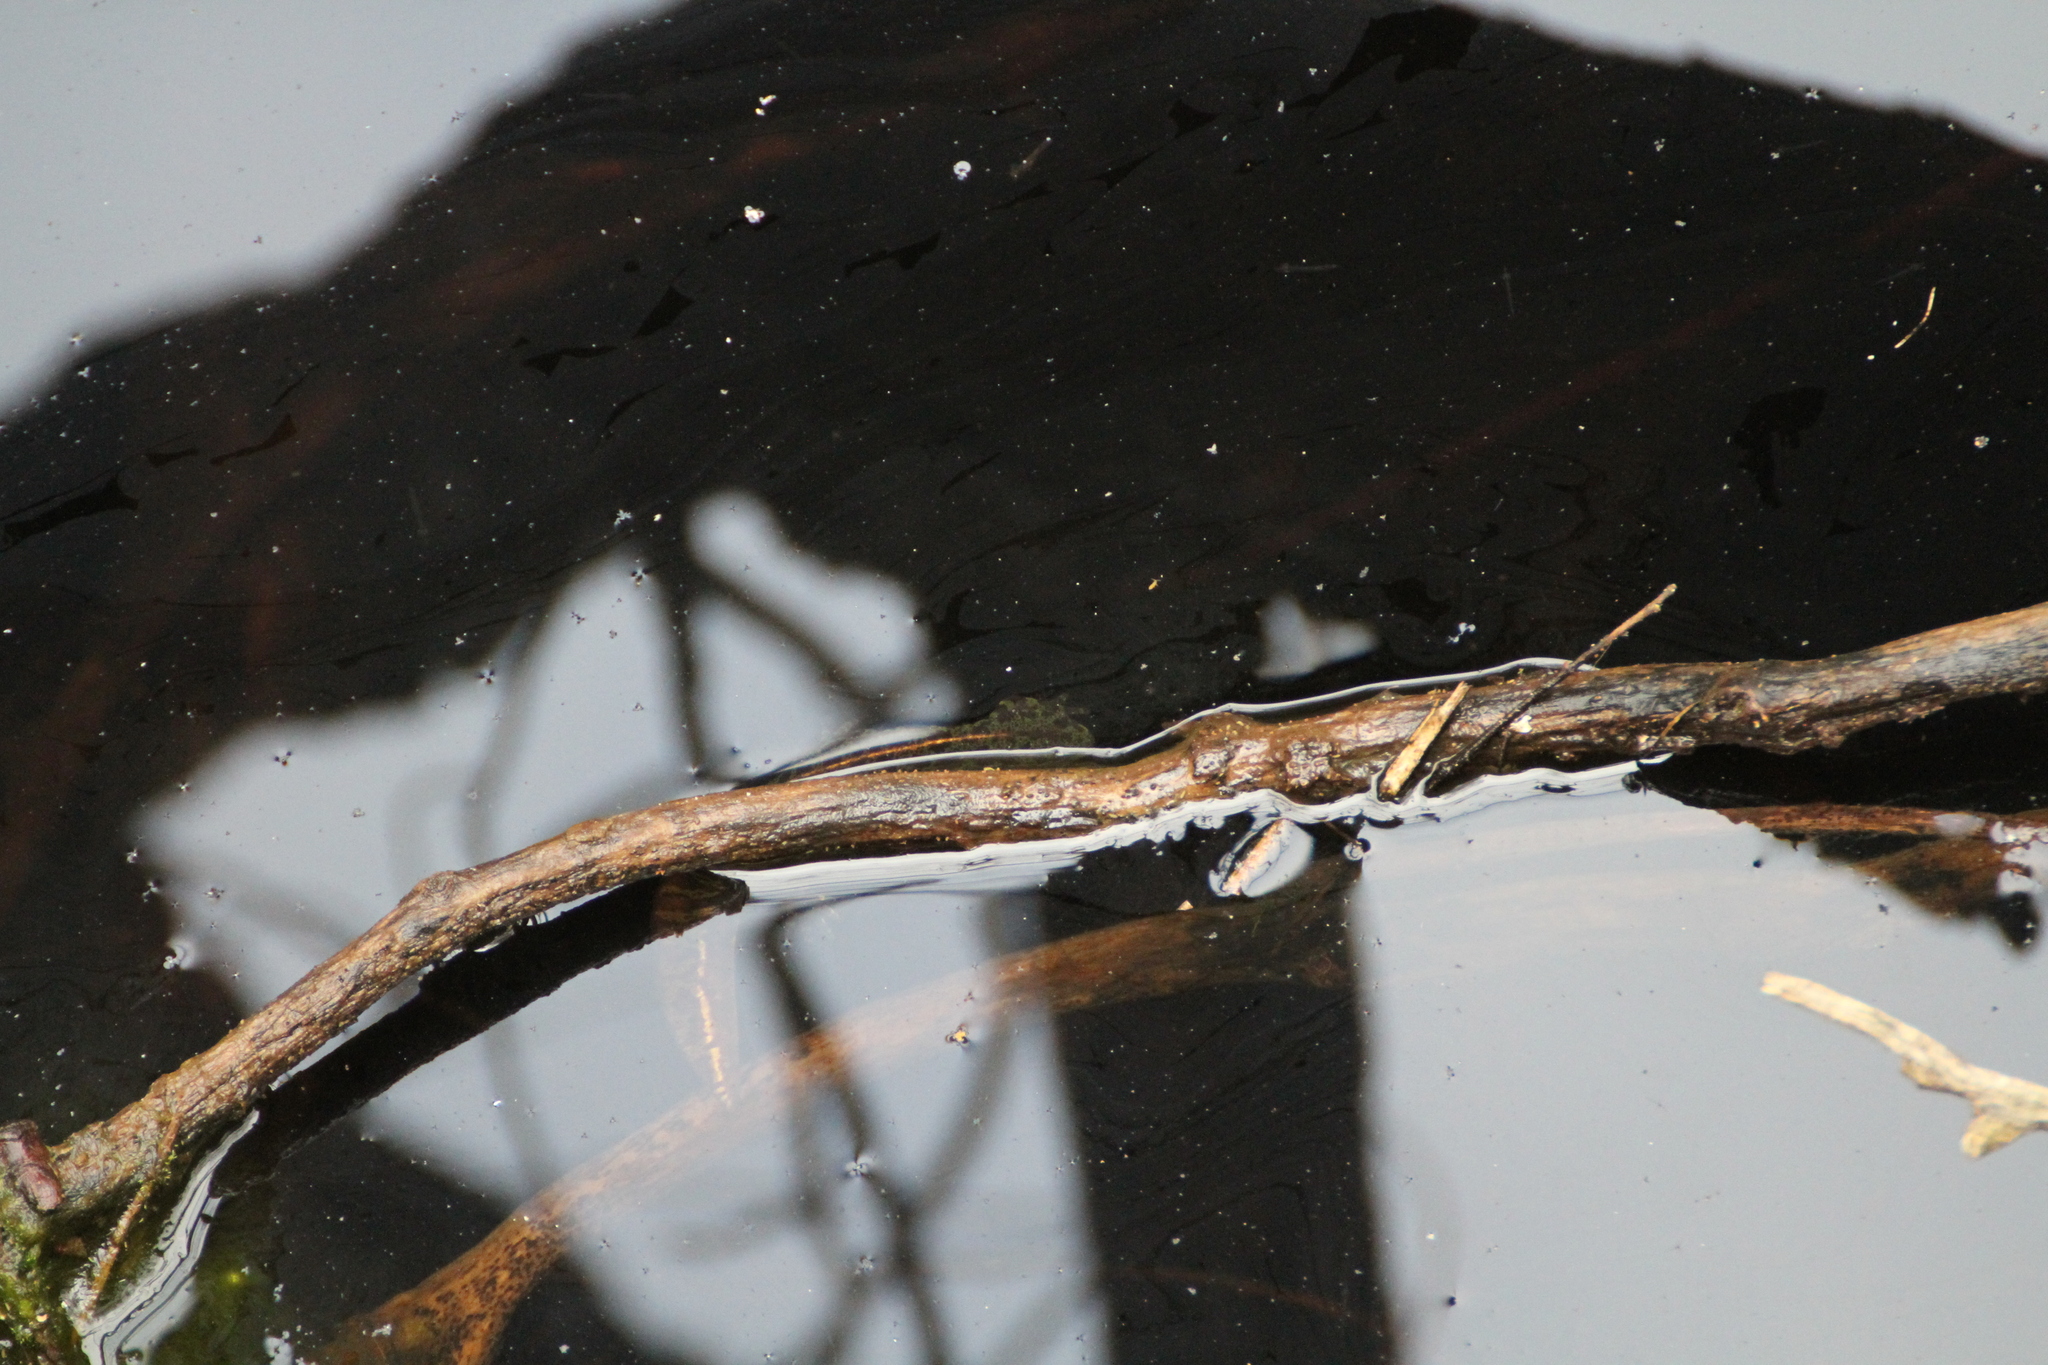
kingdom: Animalia
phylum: Chordata
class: Amphibia
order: Caudata
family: Salamandridae
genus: Triturus
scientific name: Triturus marmoratus
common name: Marbled newt
